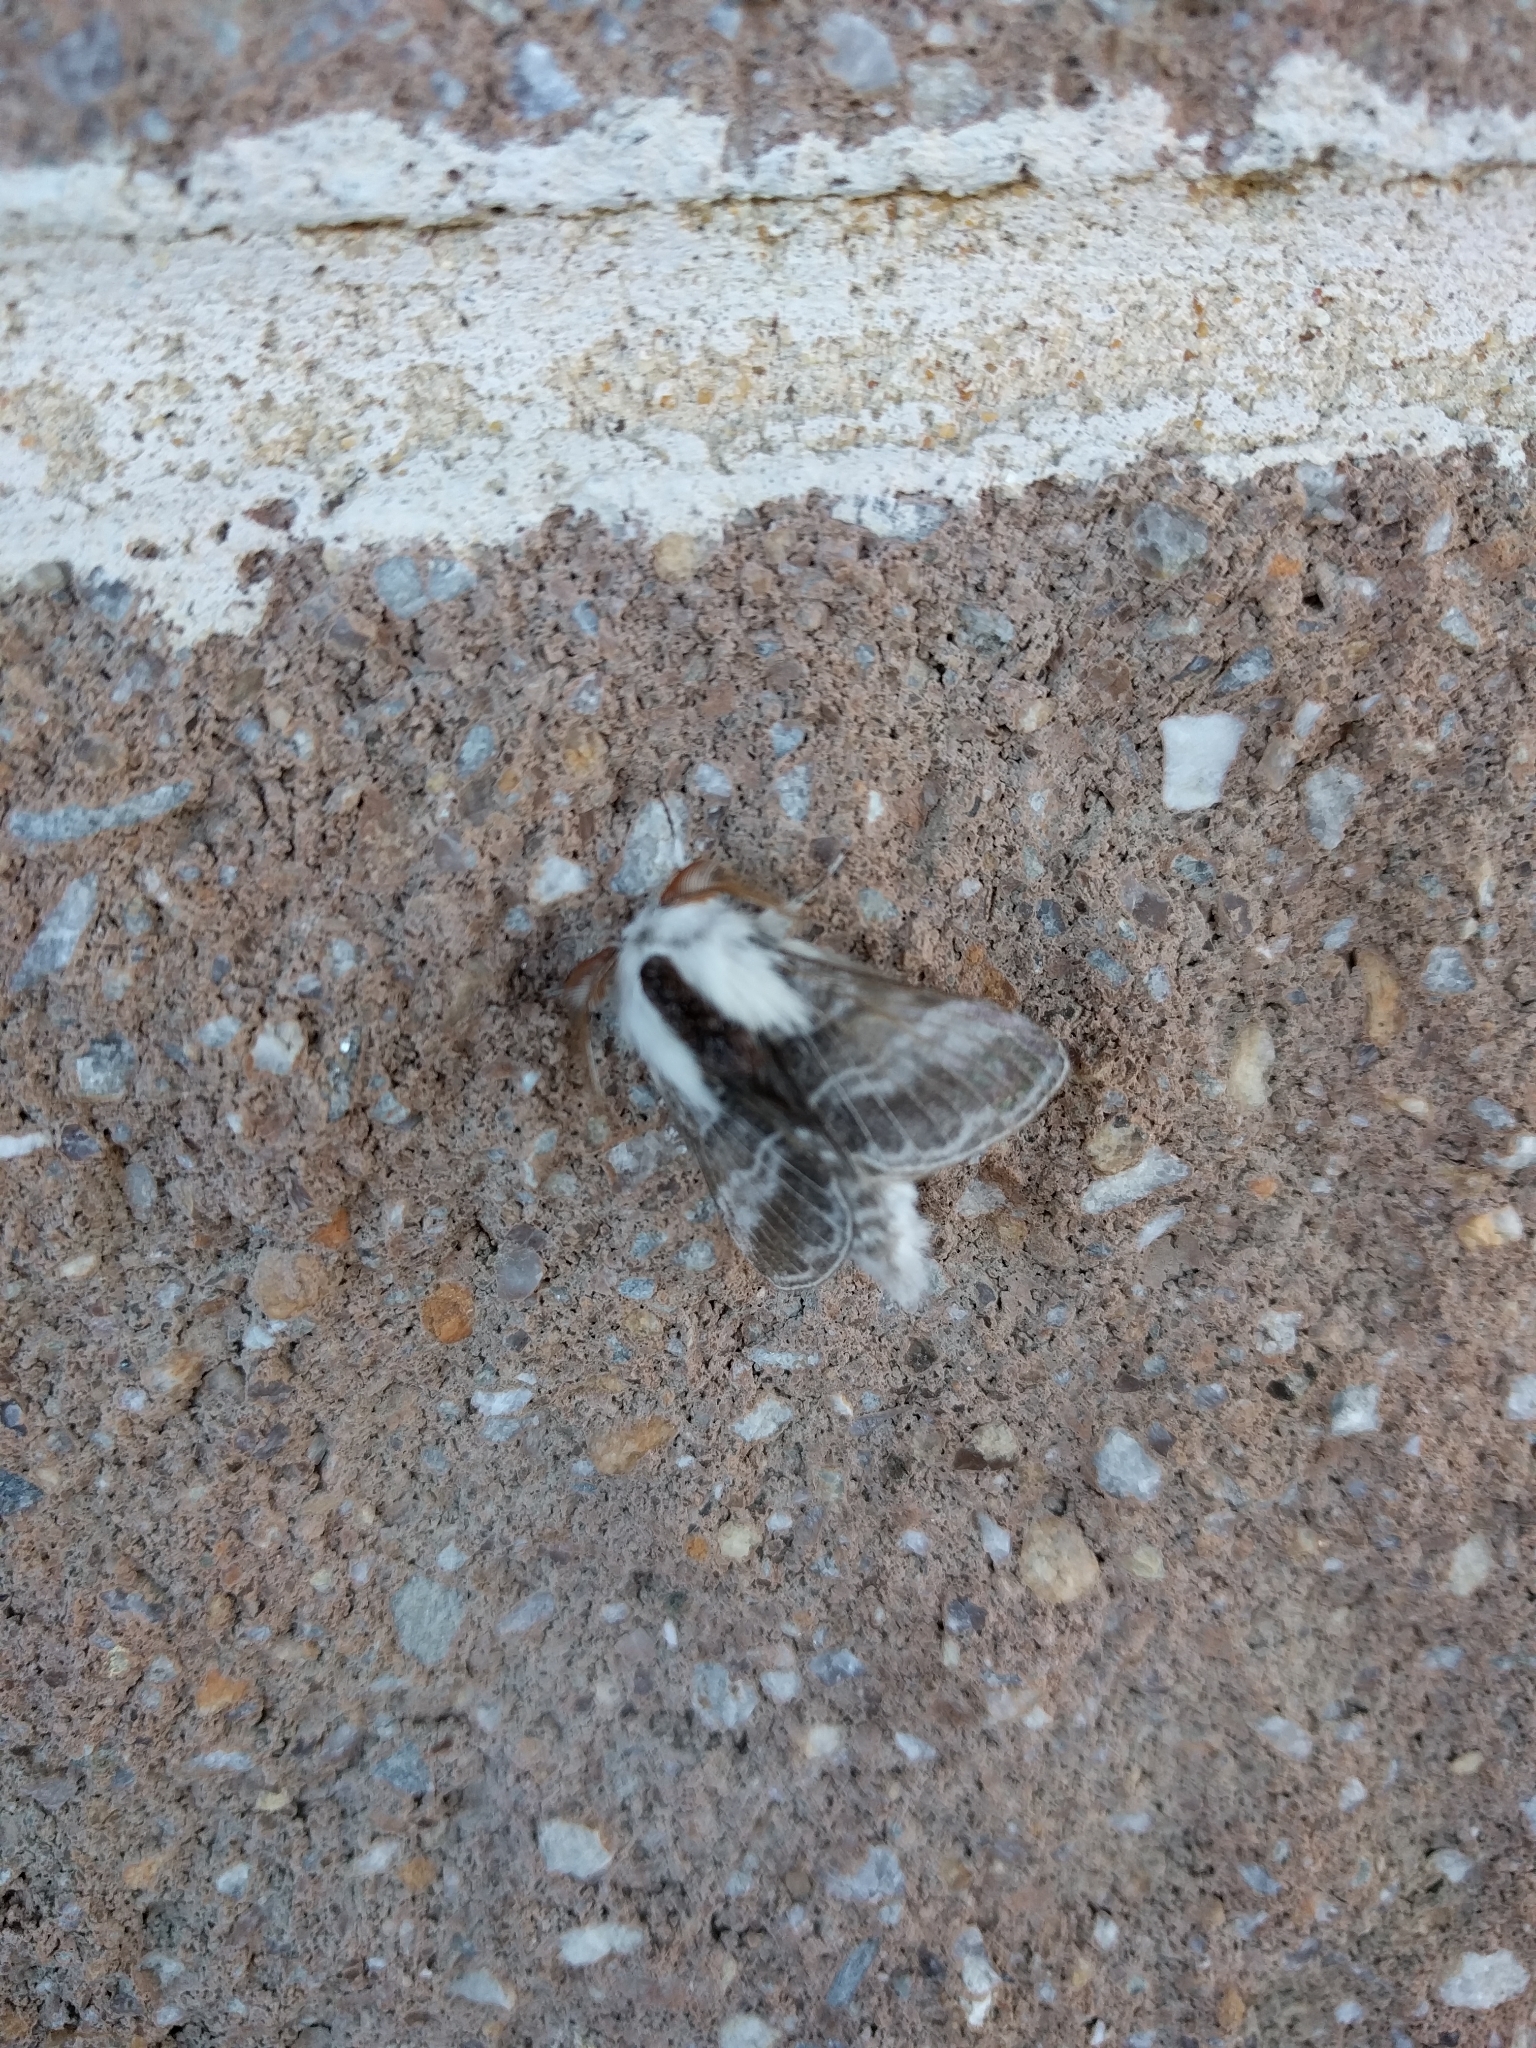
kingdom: Animalia
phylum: Arthropoda
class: Insecta
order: Lepidoptera
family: Lasiocampidae
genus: Tolype
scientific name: Tolype velleda
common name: Large tolype moth
